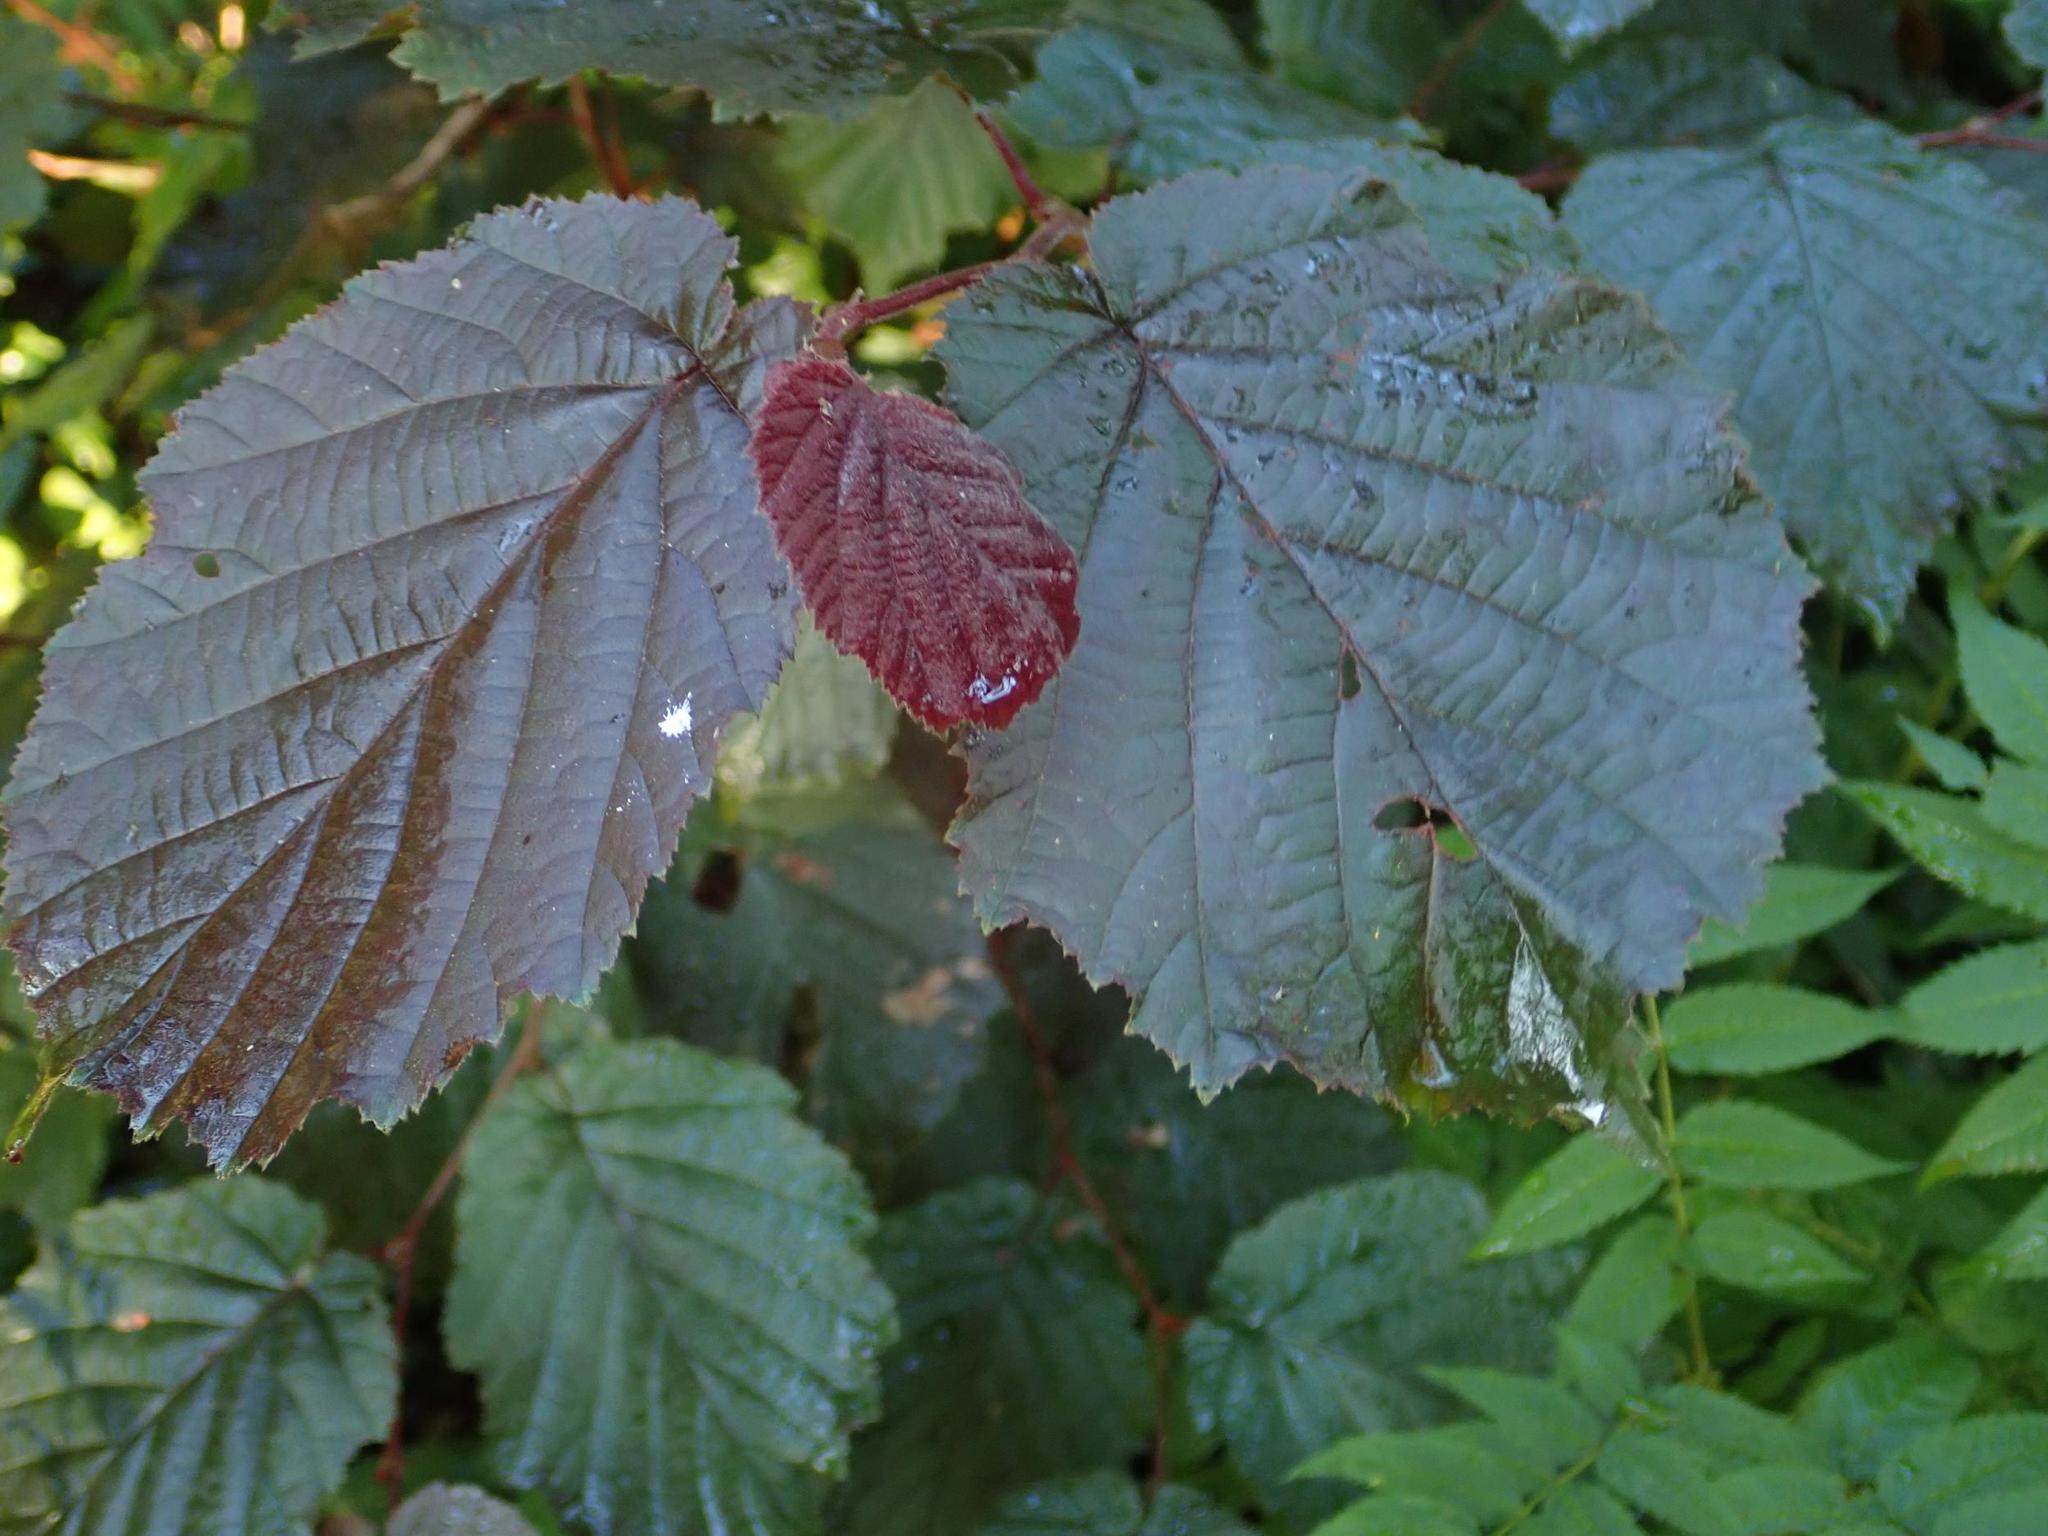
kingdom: Plantae
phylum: Tracheophyta
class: Magnoliopsida
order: Fagales
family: Betulaceae
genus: Corylus
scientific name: Corylus avellana
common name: European hazel
